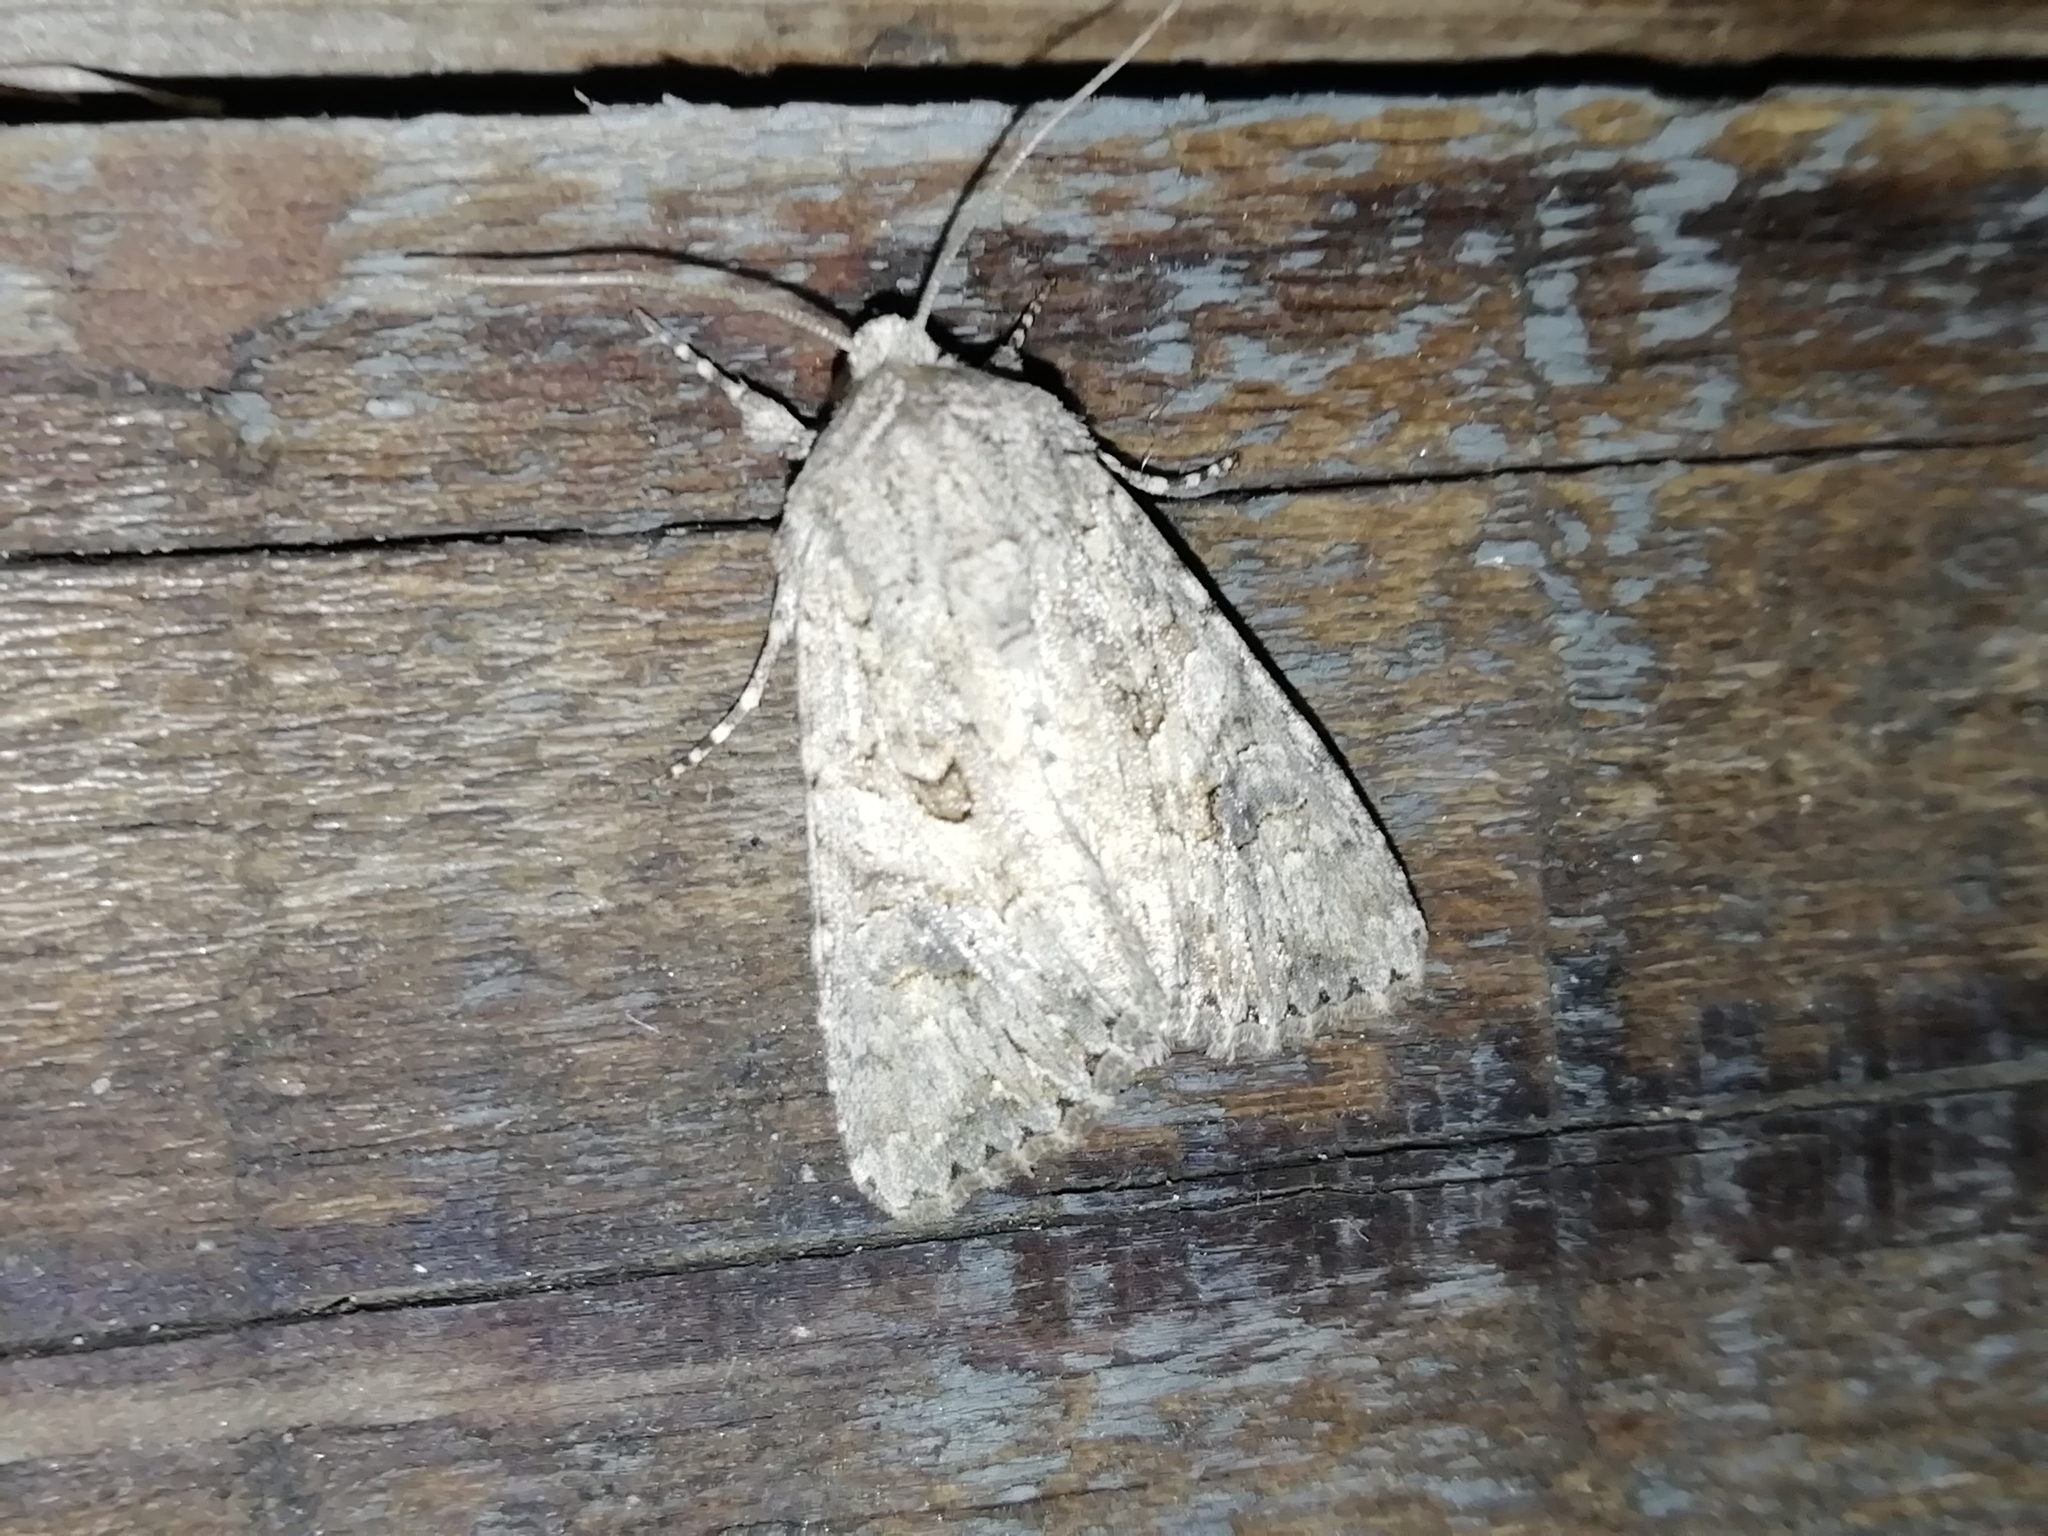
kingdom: Animalia
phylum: Arthropoda
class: Insecta
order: Lepidoptera
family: Noctuidae
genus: Anarta
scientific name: Anarta trifolii
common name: Clover cutworm moth
